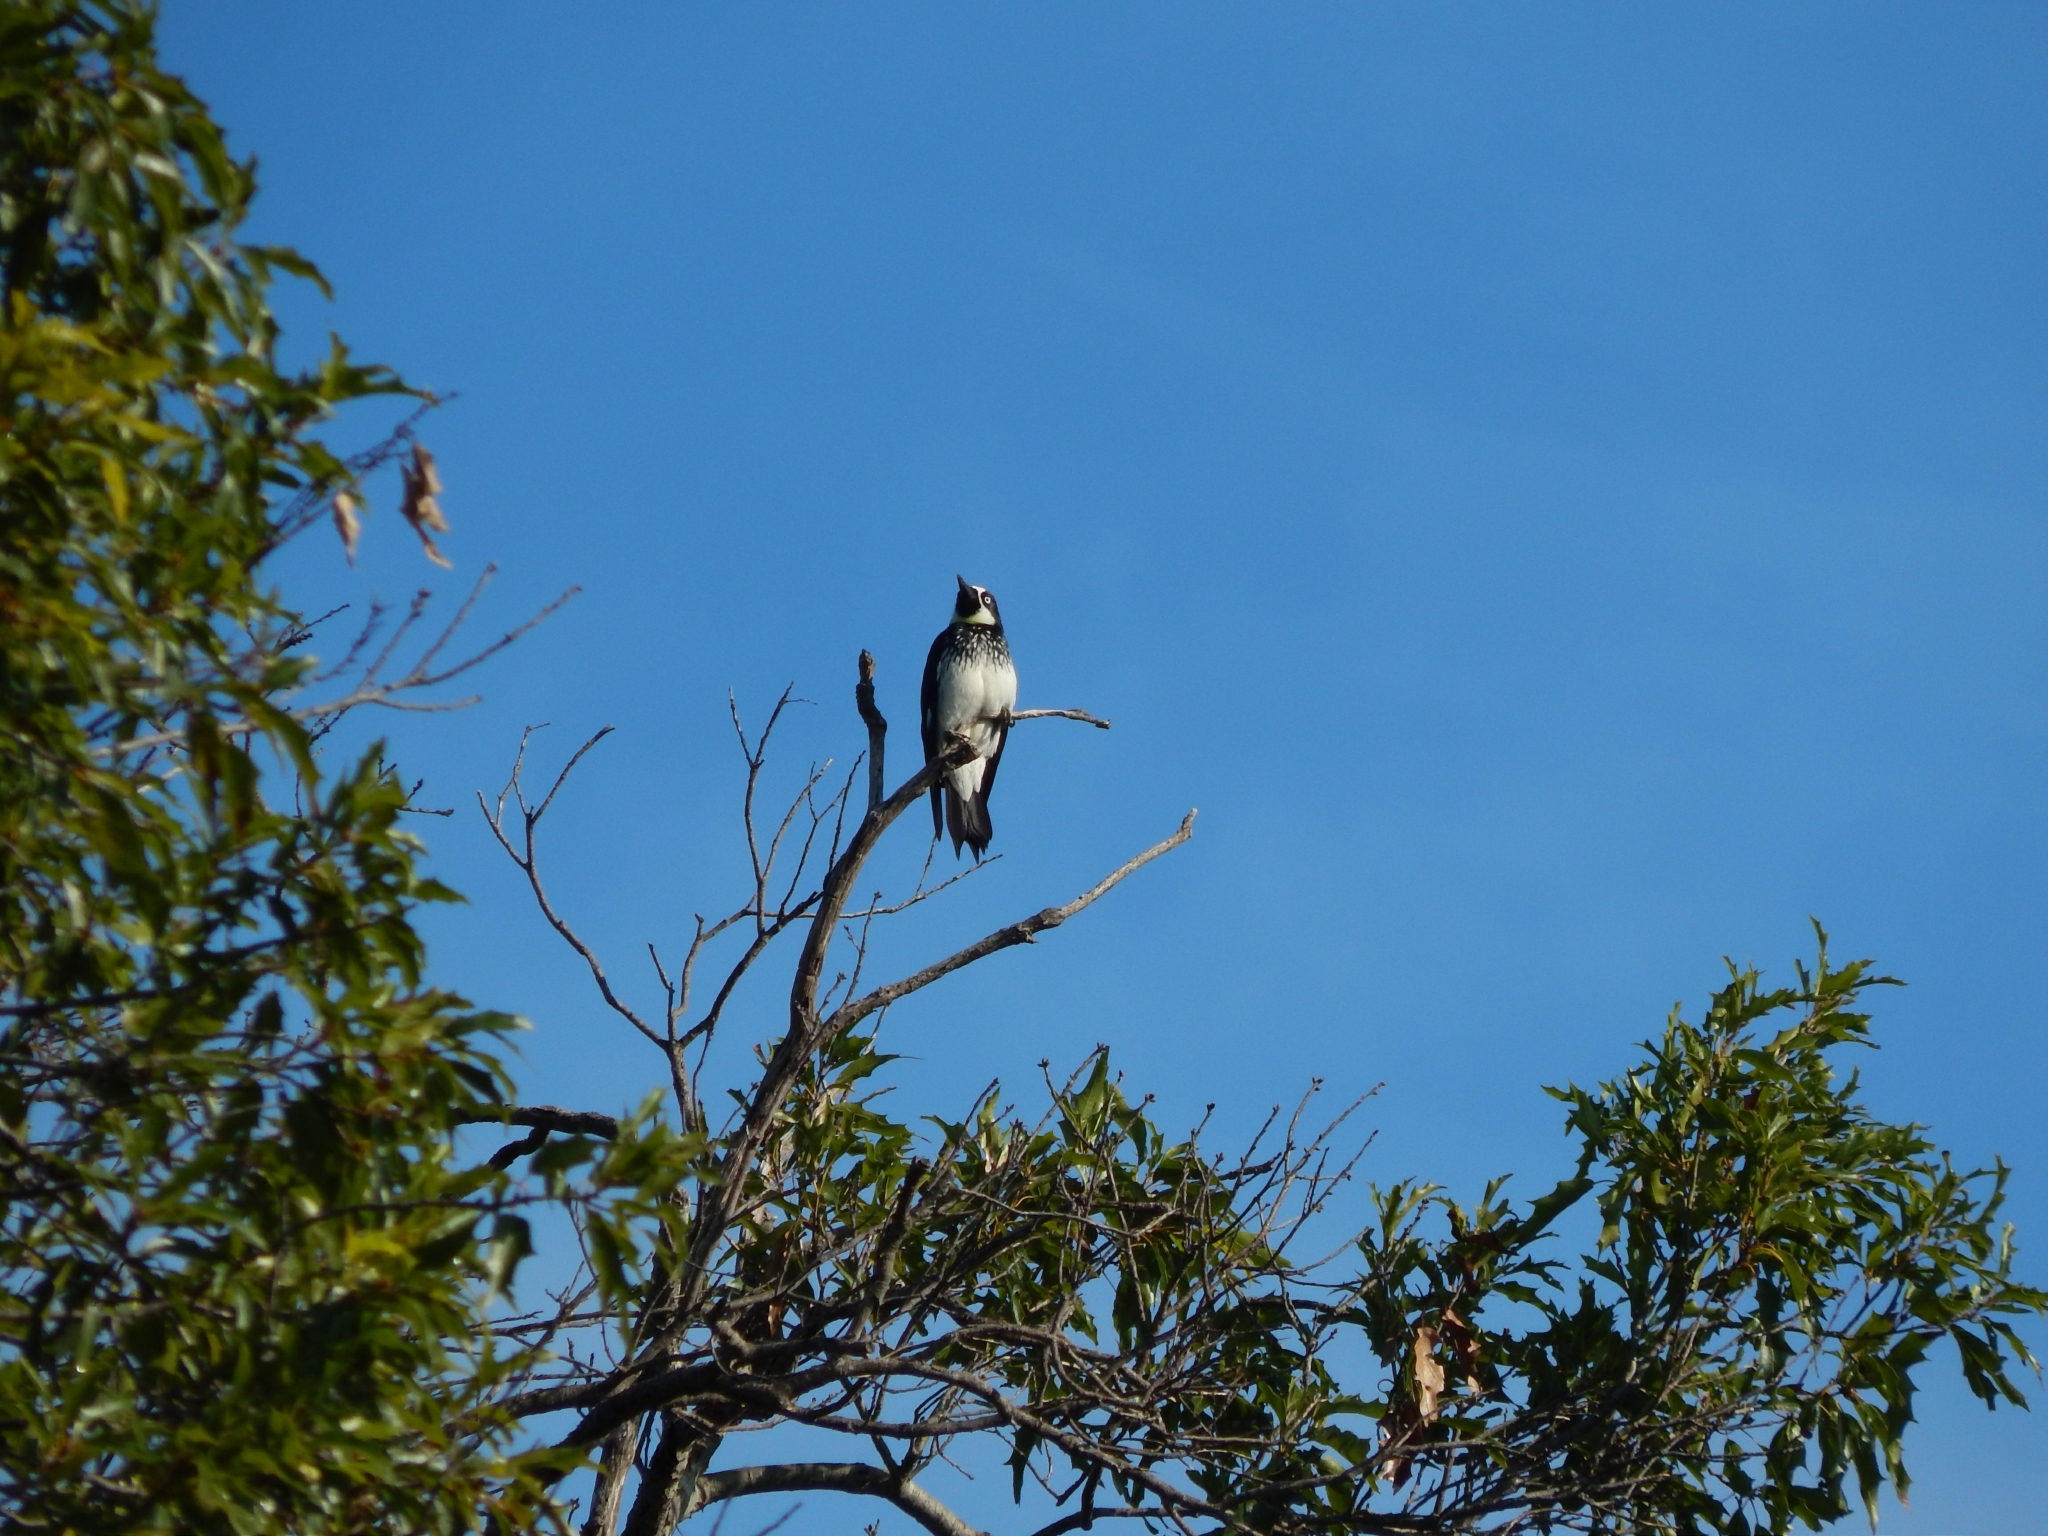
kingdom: Animalia
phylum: Chordata
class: Aves
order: Piciformes
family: Picidae
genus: Melanerpes
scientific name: Melanerpes formicivorus
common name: Acorn woodpecker
